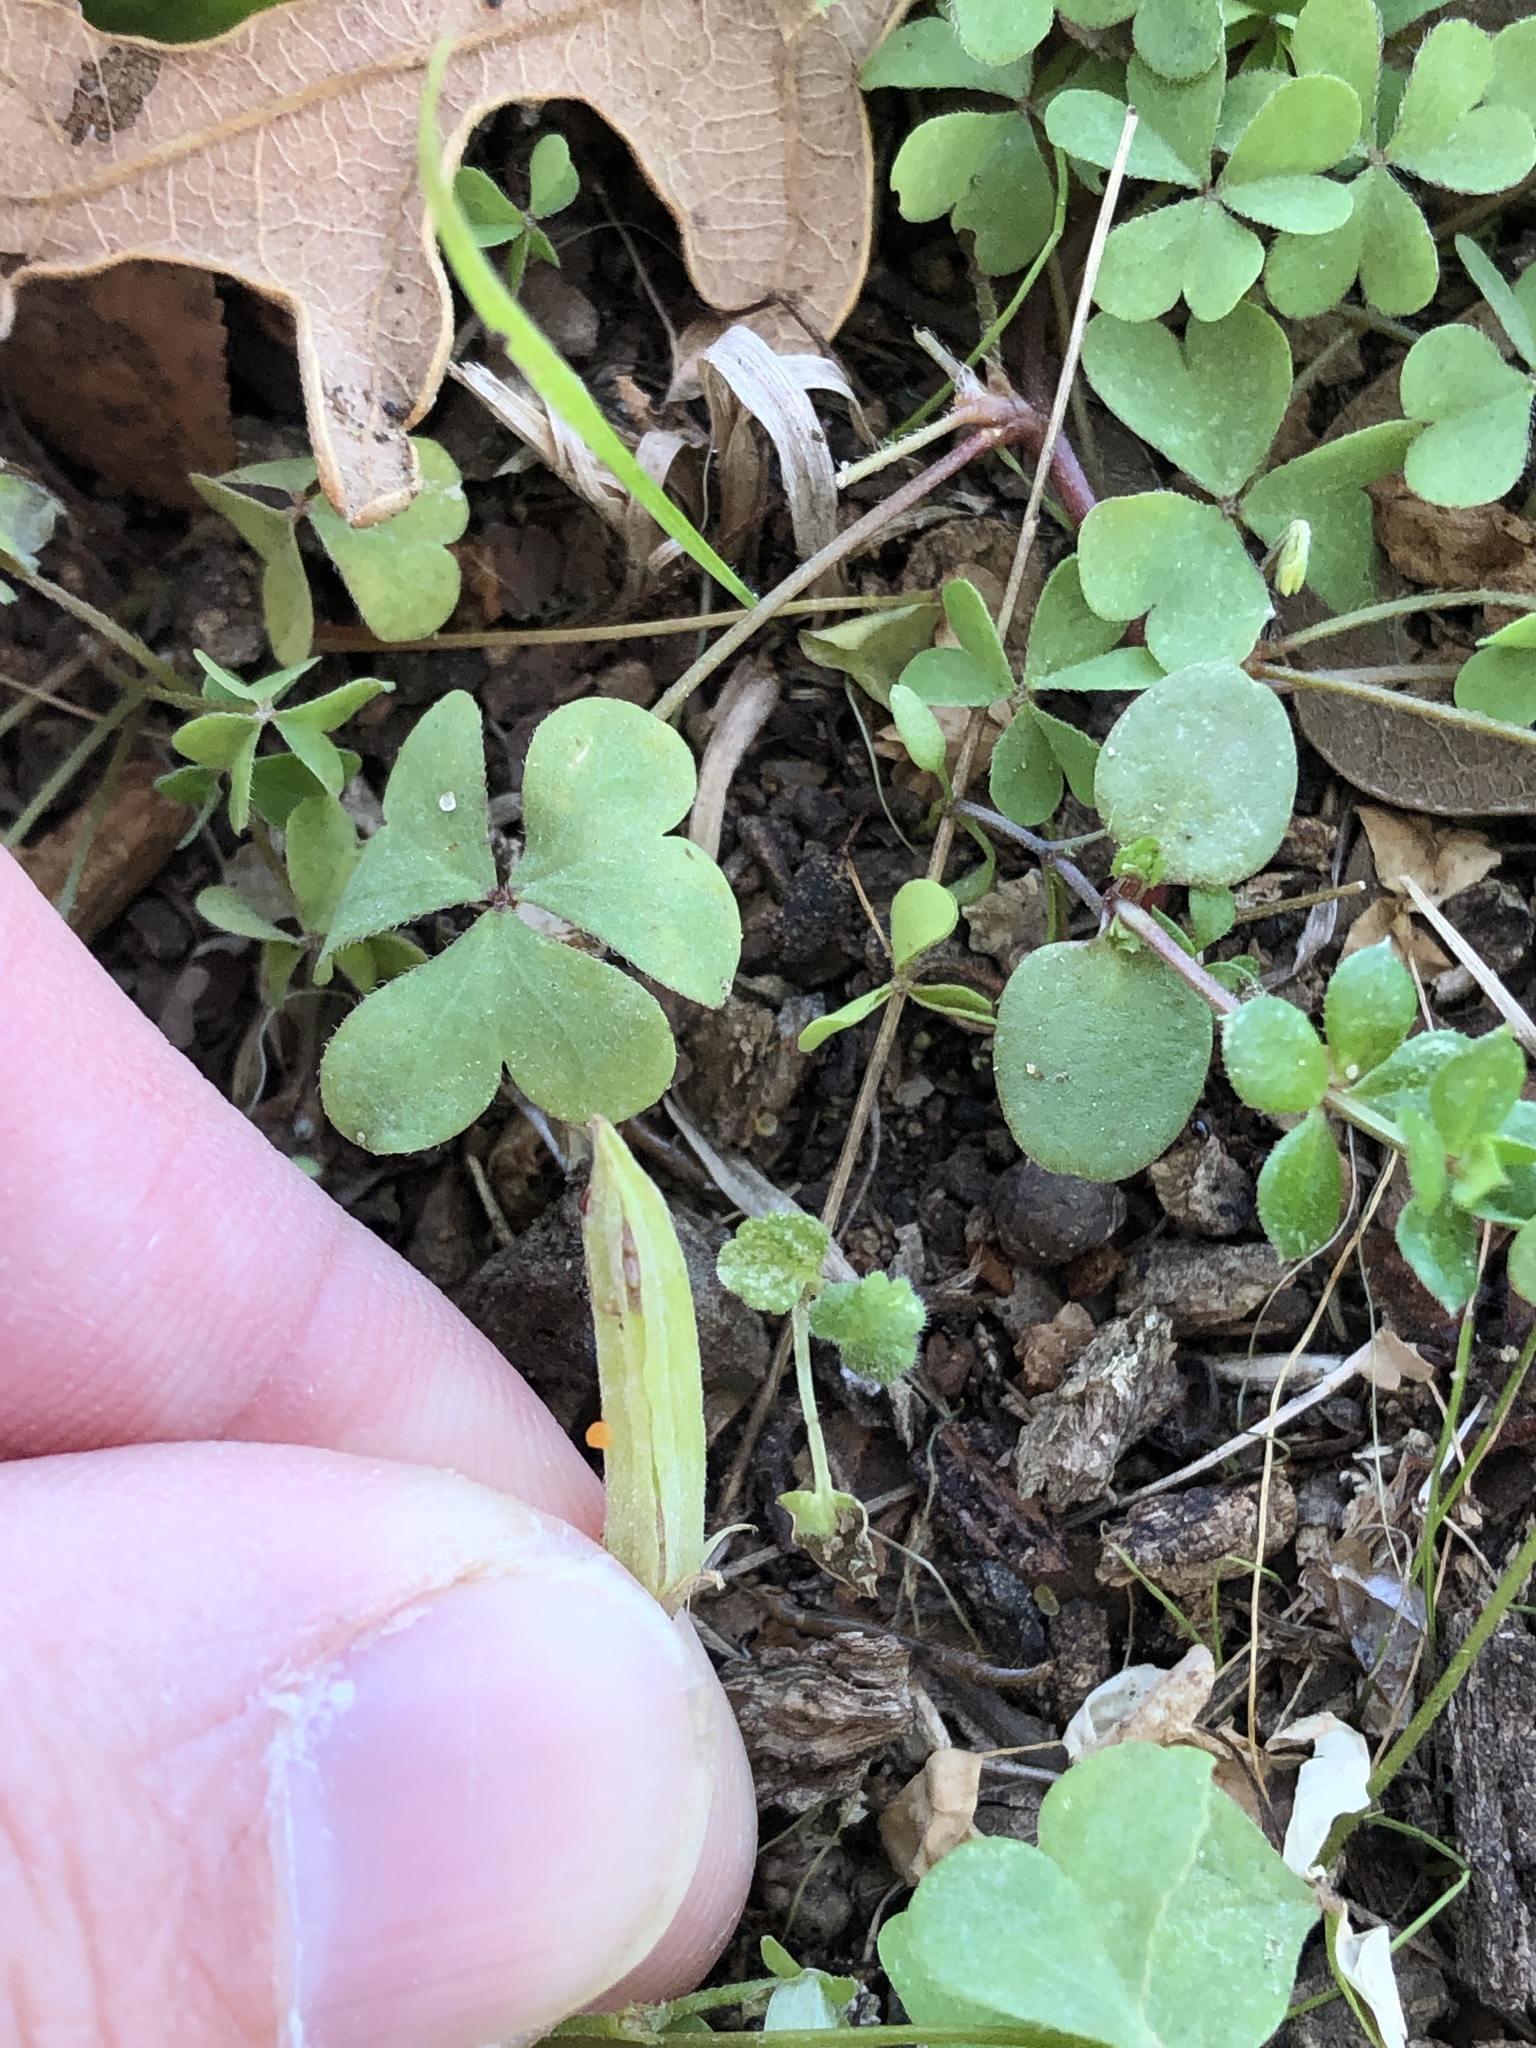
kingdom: Plantae
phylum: Tracheophyta
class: Magnoliopsida
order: Oxalidales
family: Oxalidaceae
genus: Oxalis
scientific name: Oxalis dillenii
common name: Sussex yellow-sorrel
